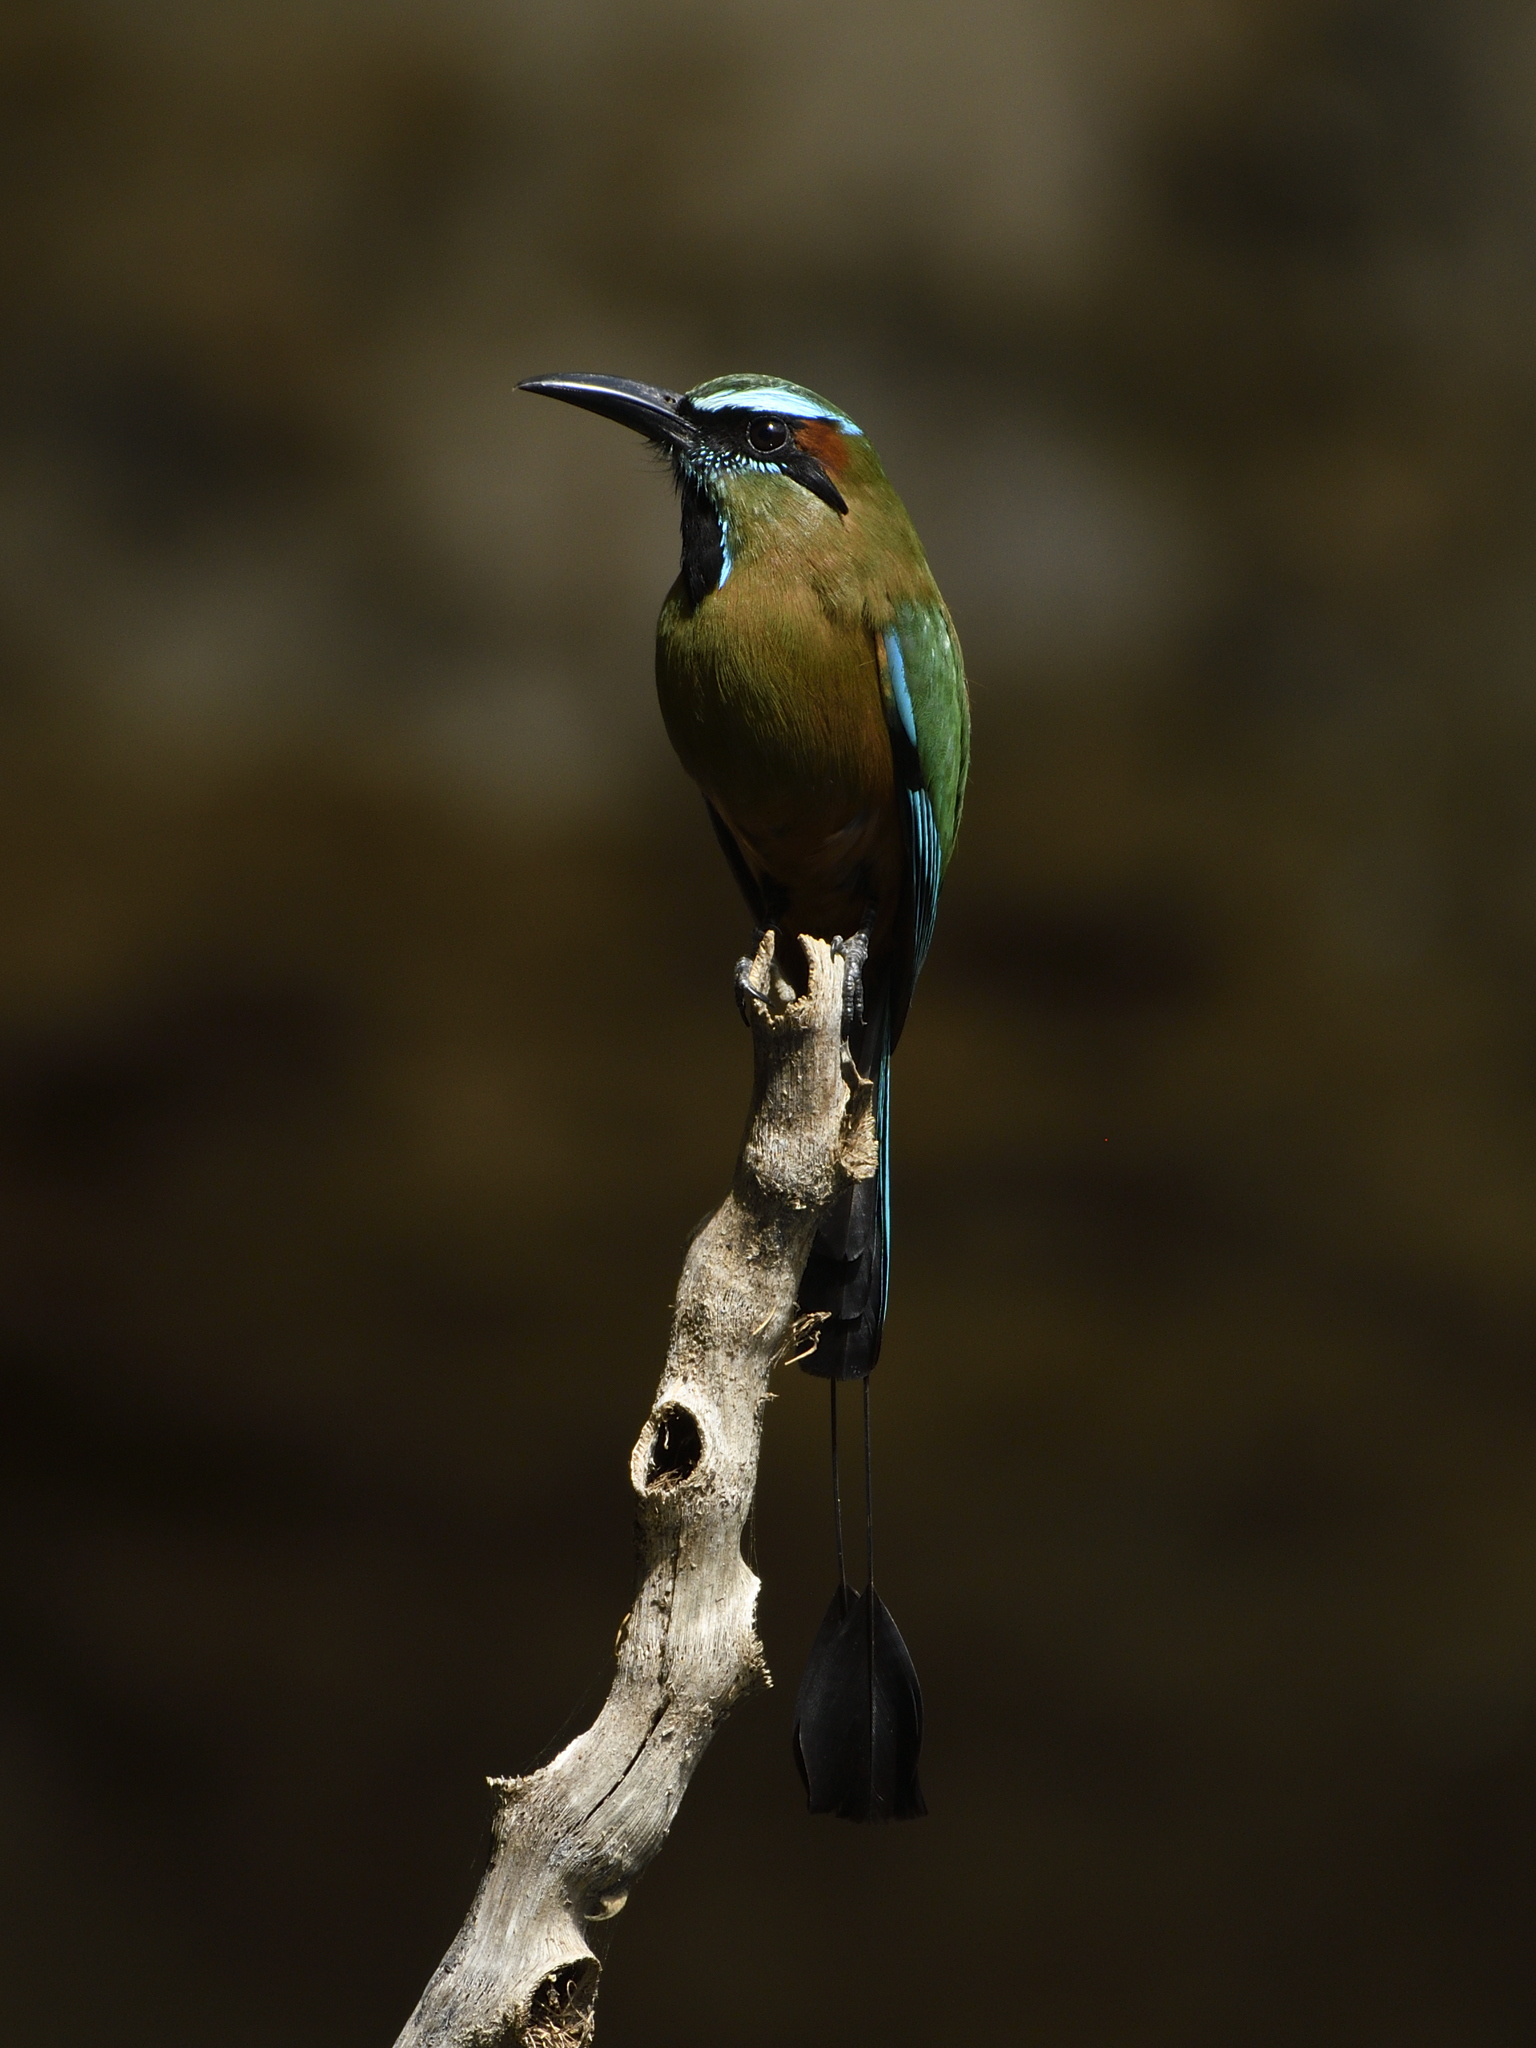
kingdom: Animalia
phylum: Chordata
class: Aves
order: Coraciiformes
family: Momotidae
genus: Eumomota
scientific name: Eumomota superciliosa
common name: Turquoise-browed motmot
